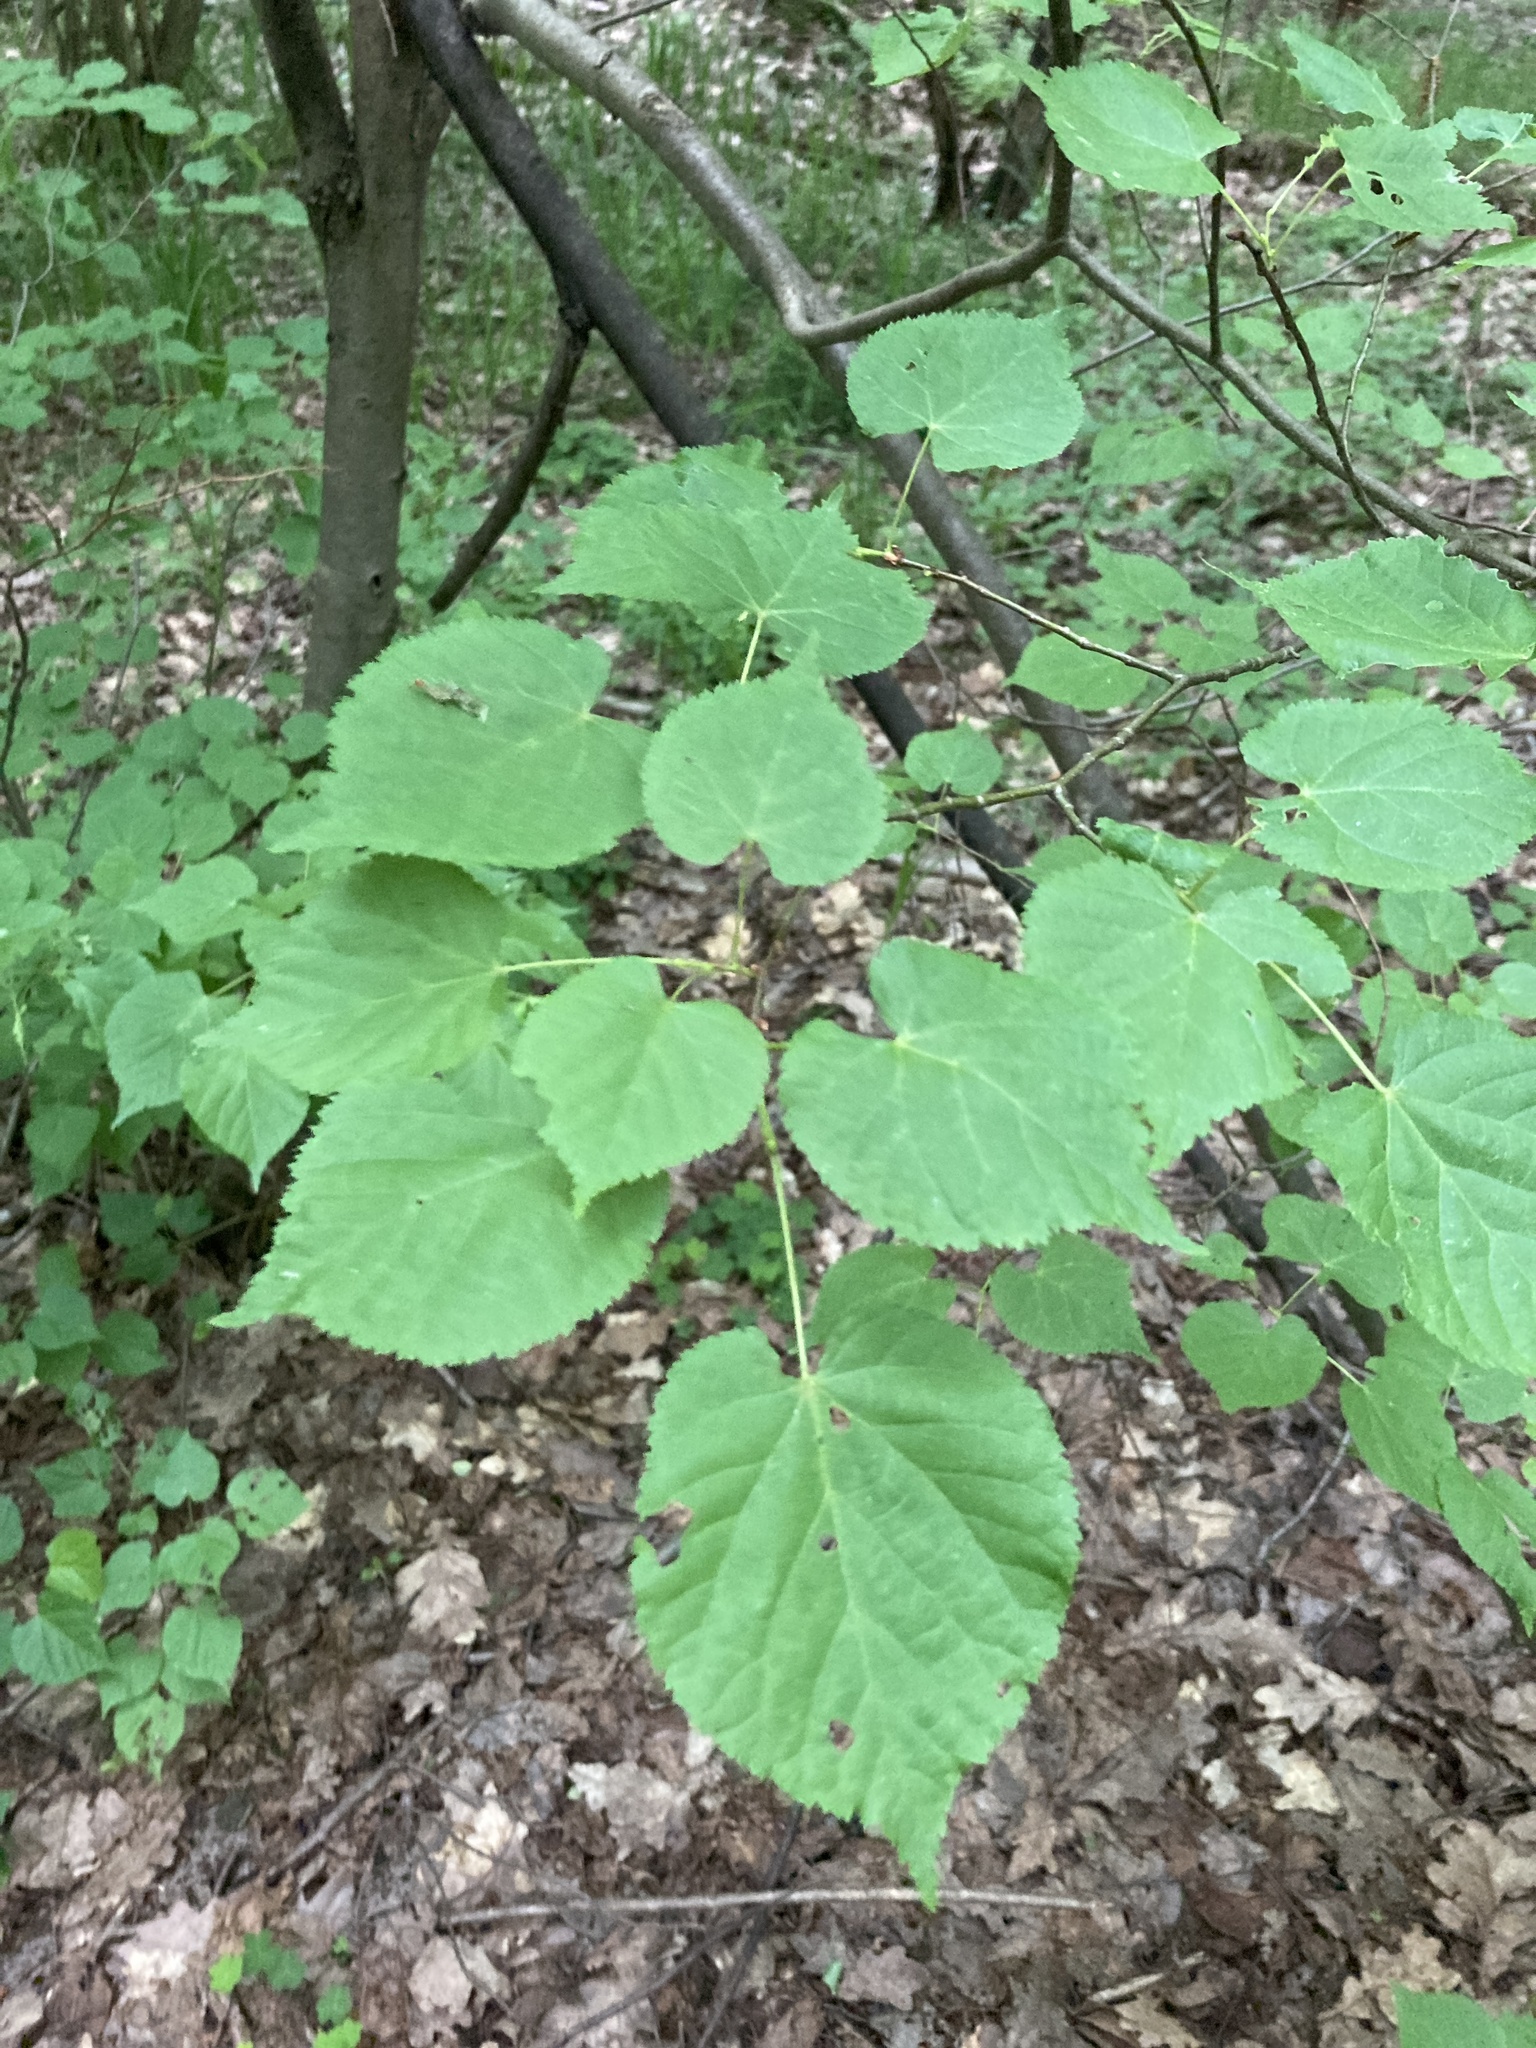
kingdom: Plantae
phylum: Tracheophyta
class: Magnoliopsida
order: Malvales
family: Malvaceae
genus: Tilia
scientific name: Tilia cordata
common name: Small-leaved lime
